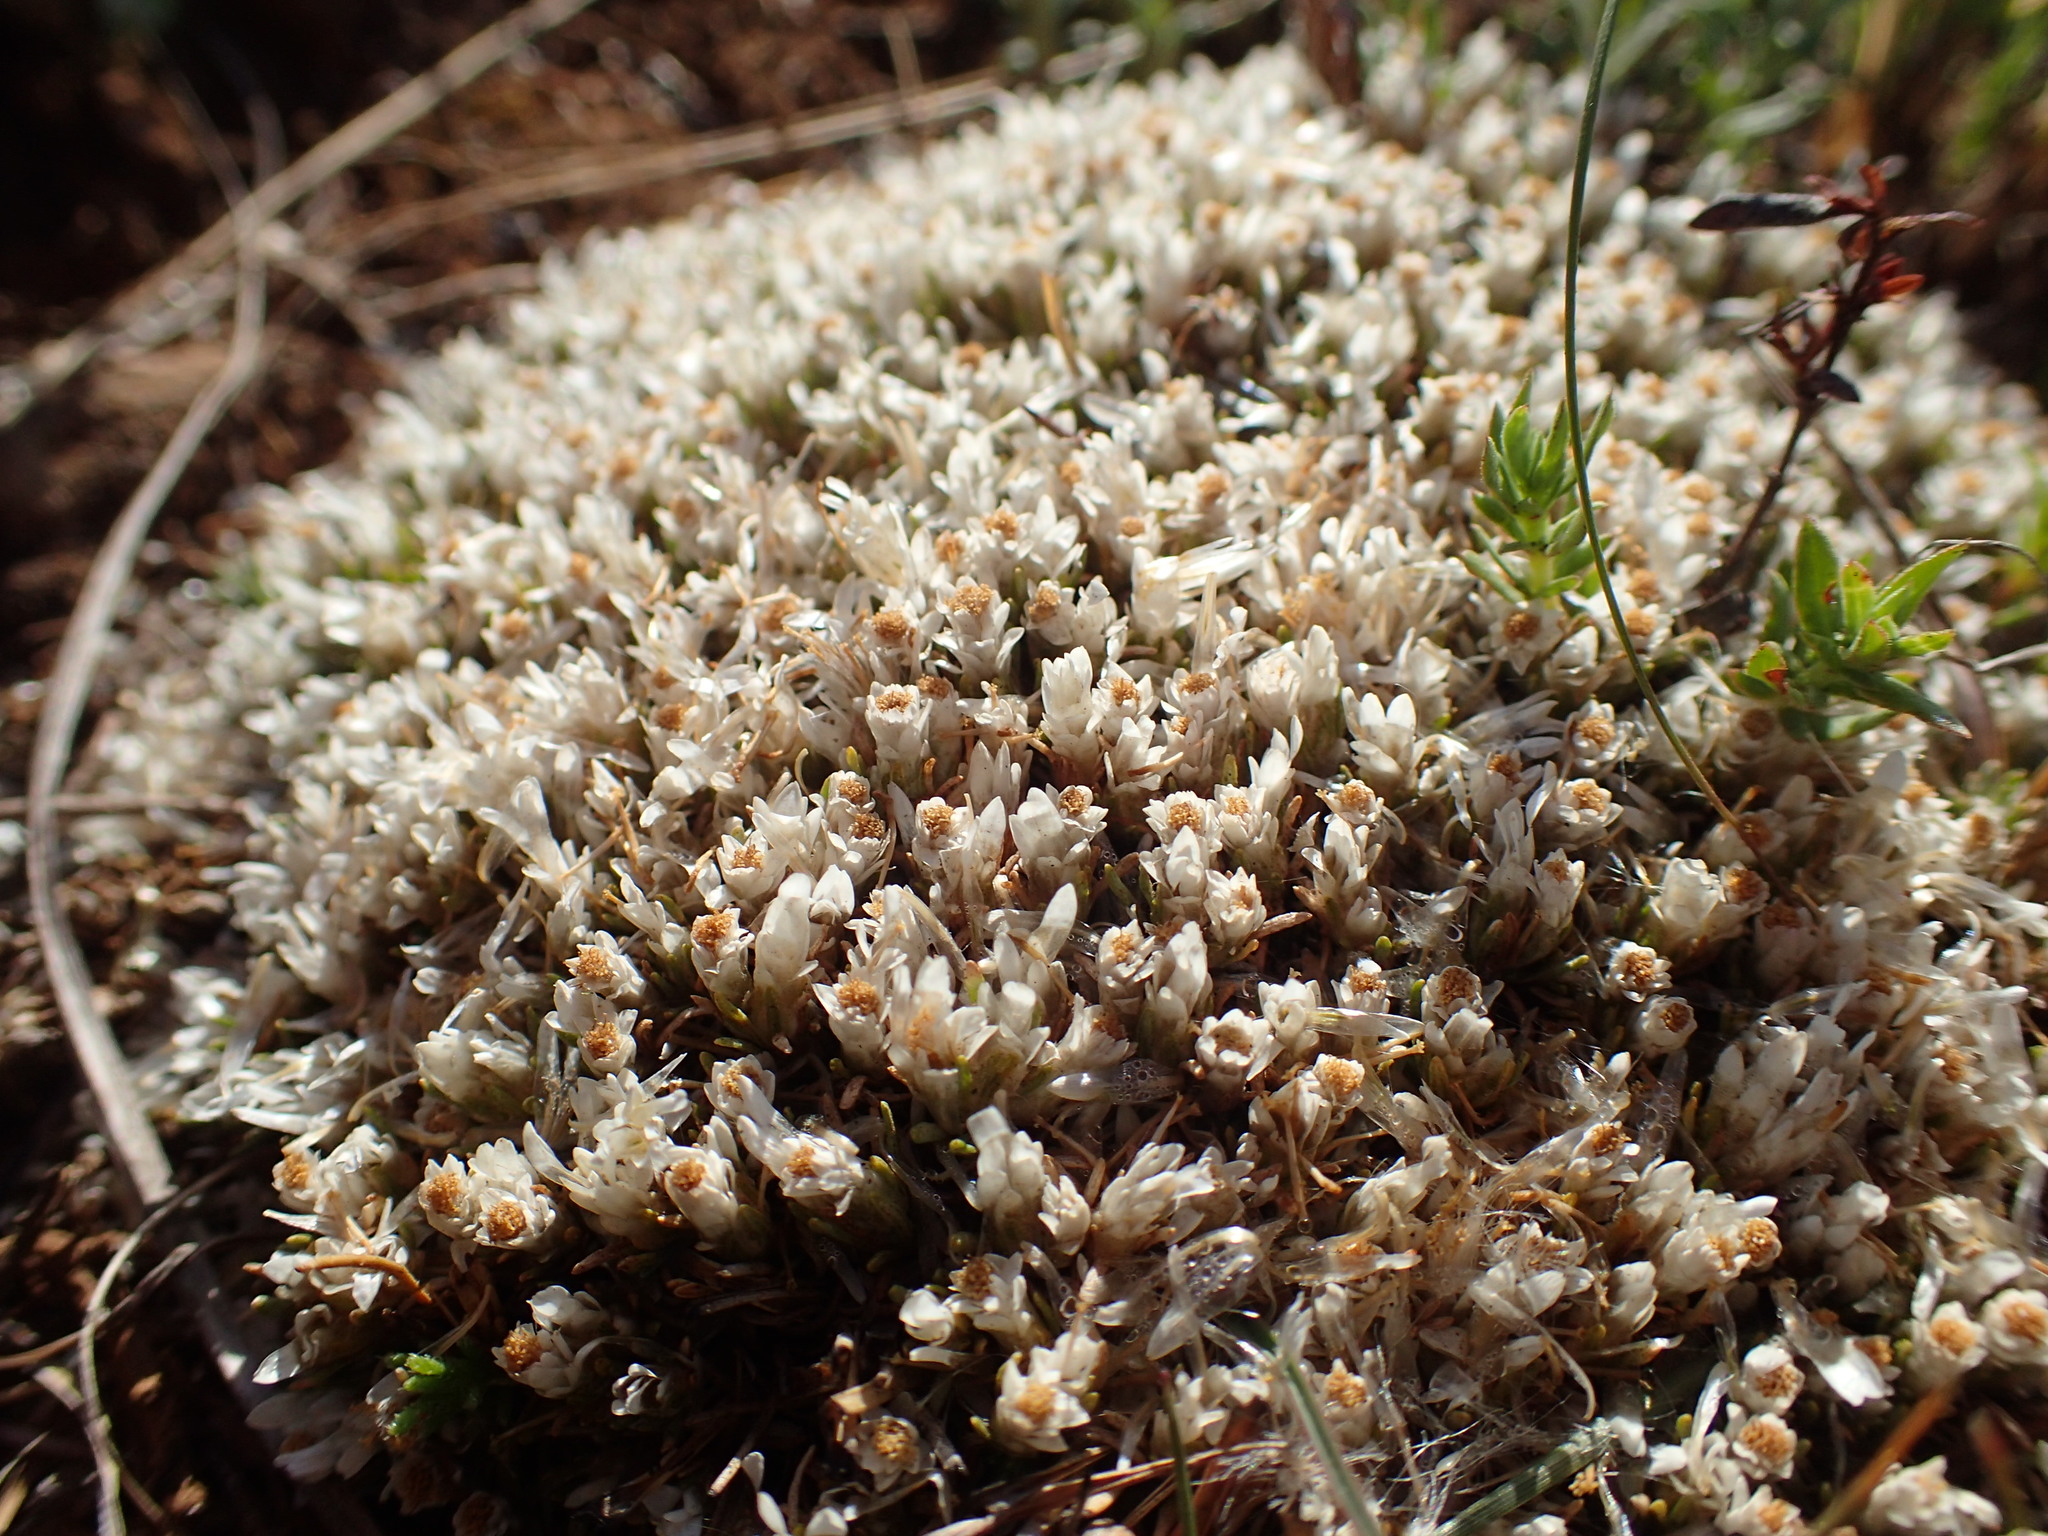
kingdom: Plantae
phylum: Tracheophyta
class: Magnoliopsida
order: Asterales
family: Asteraceae
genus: Helichrysum
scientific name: Helichrysum caespititium
